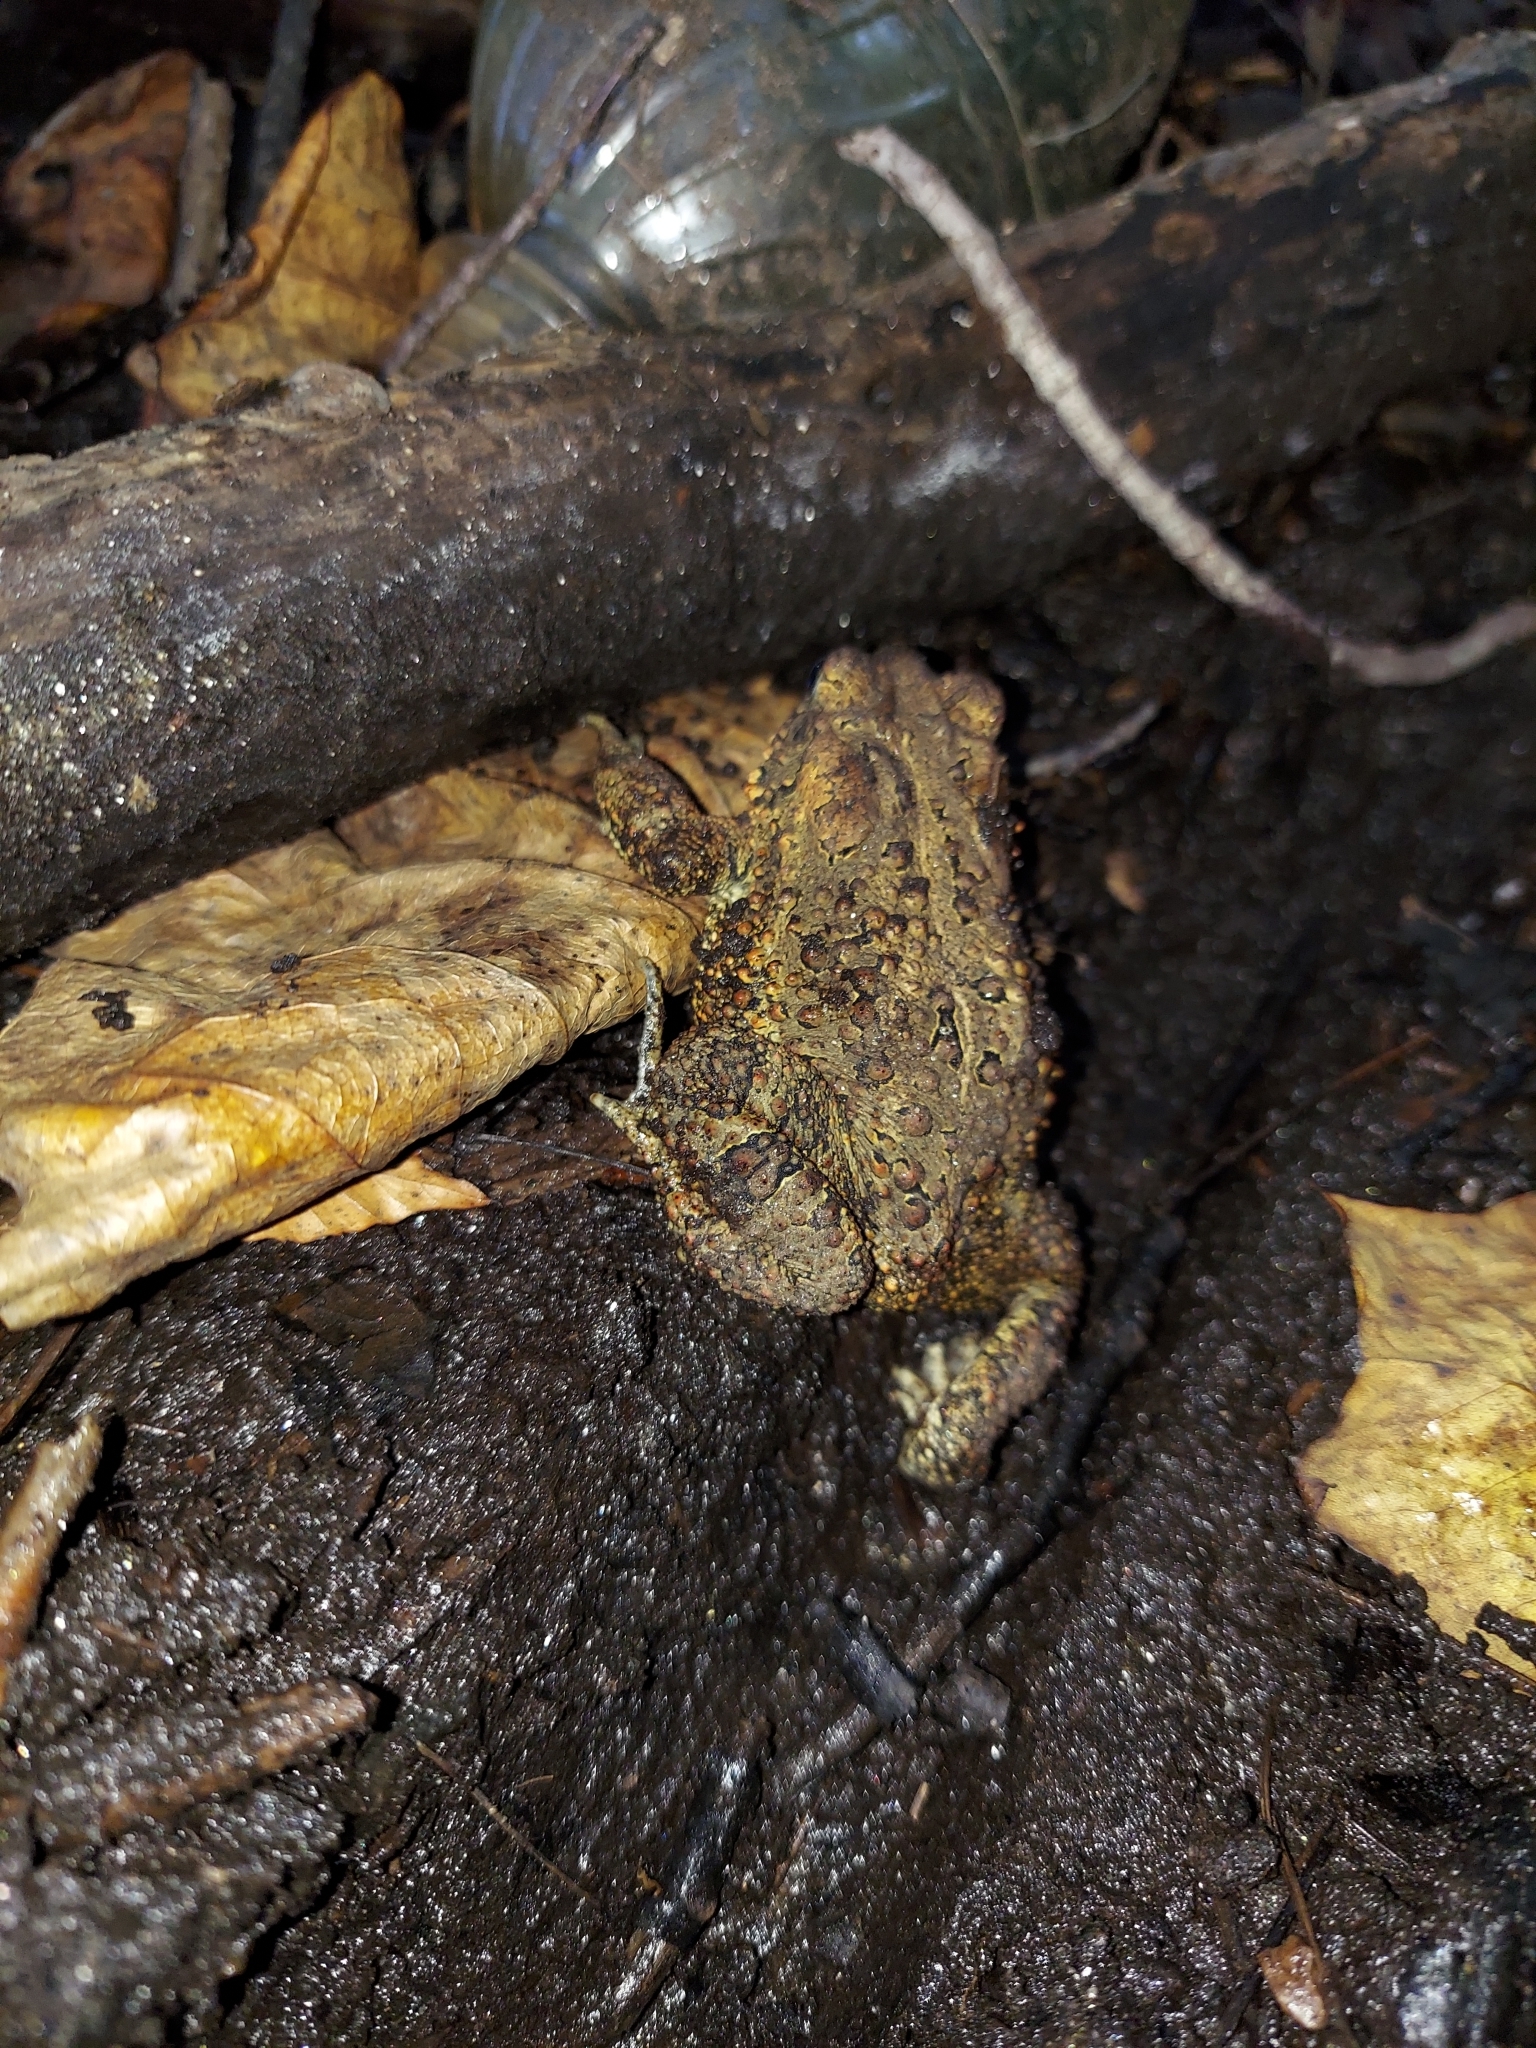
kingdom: Animalia
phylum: Chordata
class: Amphibia
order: Anura
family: Bufonidae
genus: Anaxyrus
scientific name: Anaxyrus americanus
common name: American toad
